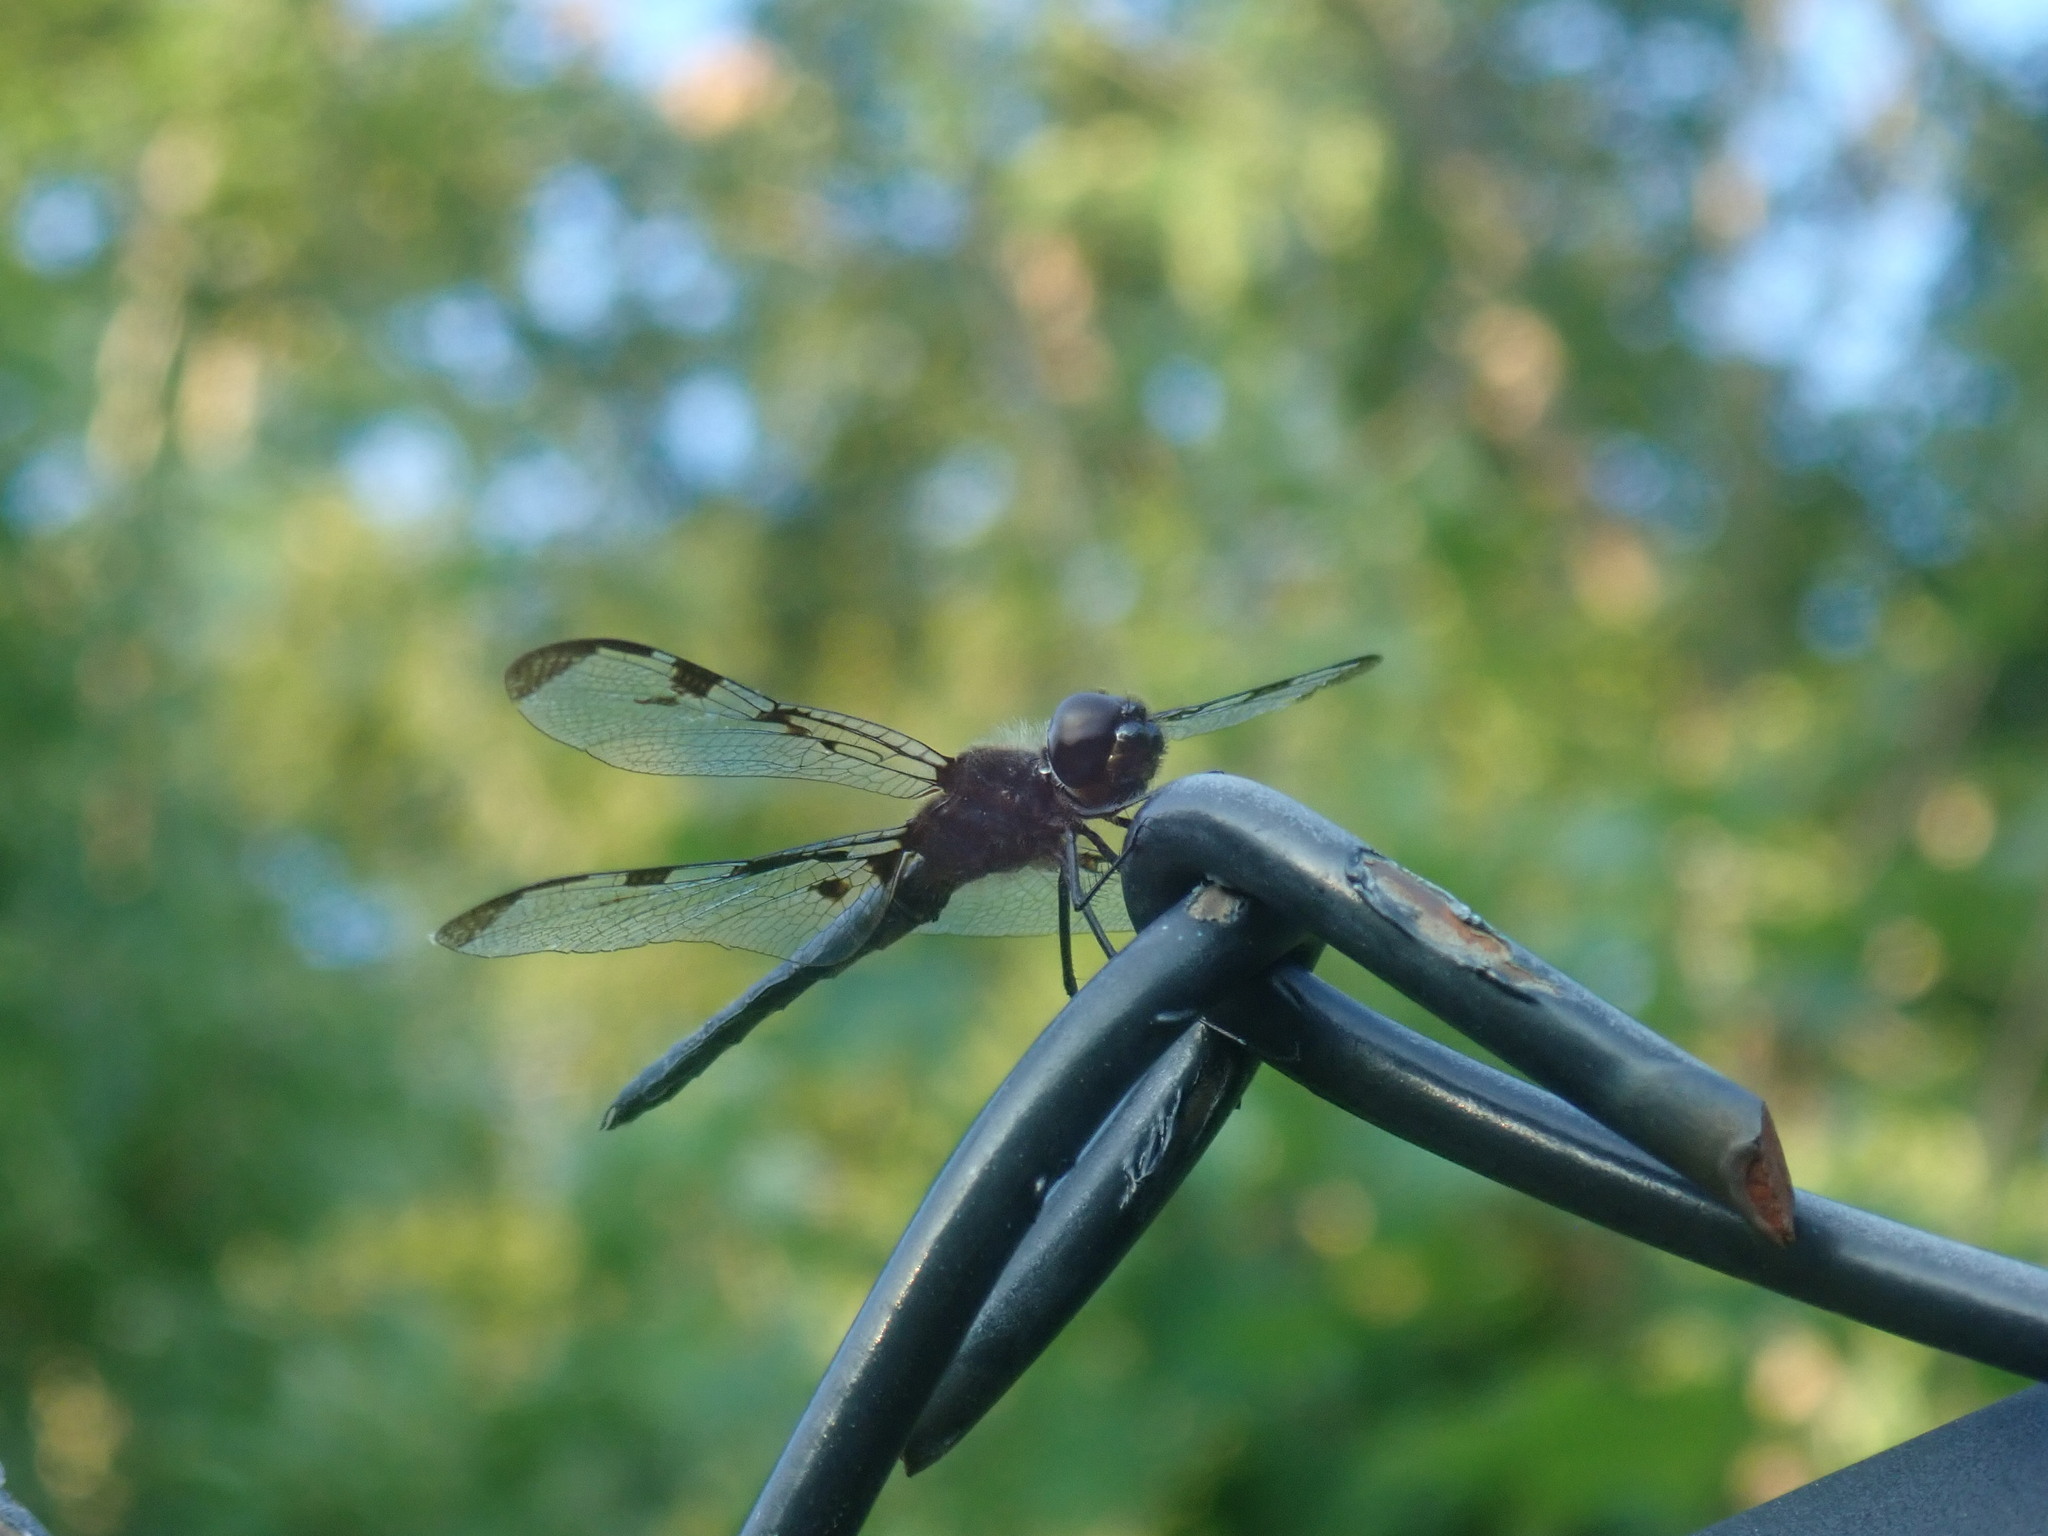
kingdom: Animalia
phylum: Arthropoda
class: Insecta
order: Odonata
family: Libellulidae
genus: Celithemis
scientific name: Celithemis fasciata
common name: Banded pennant
